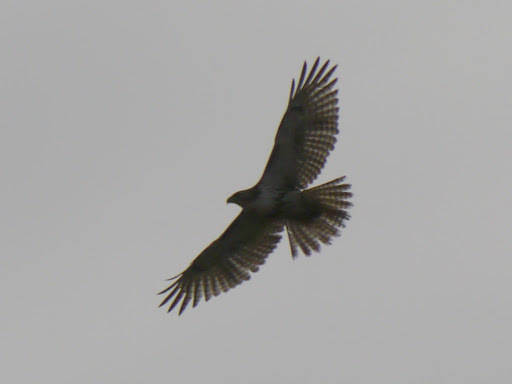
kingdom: Animalia
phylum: Chordata
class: Aves
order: Accipitriformes
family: Accipitridae
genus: Buteo
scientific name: Buteo jamaicensis
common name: Red-tailed hawk
